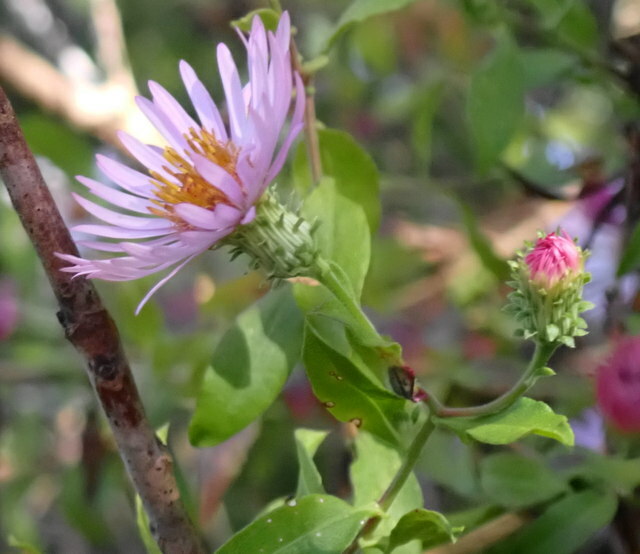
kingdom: Plantae
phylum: Tracheophyta
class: Magnoliopsida
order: Asterales
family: Asteraceae
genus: Ampelaster
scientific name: Ampelaster carolinianus
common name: Climbing aster
